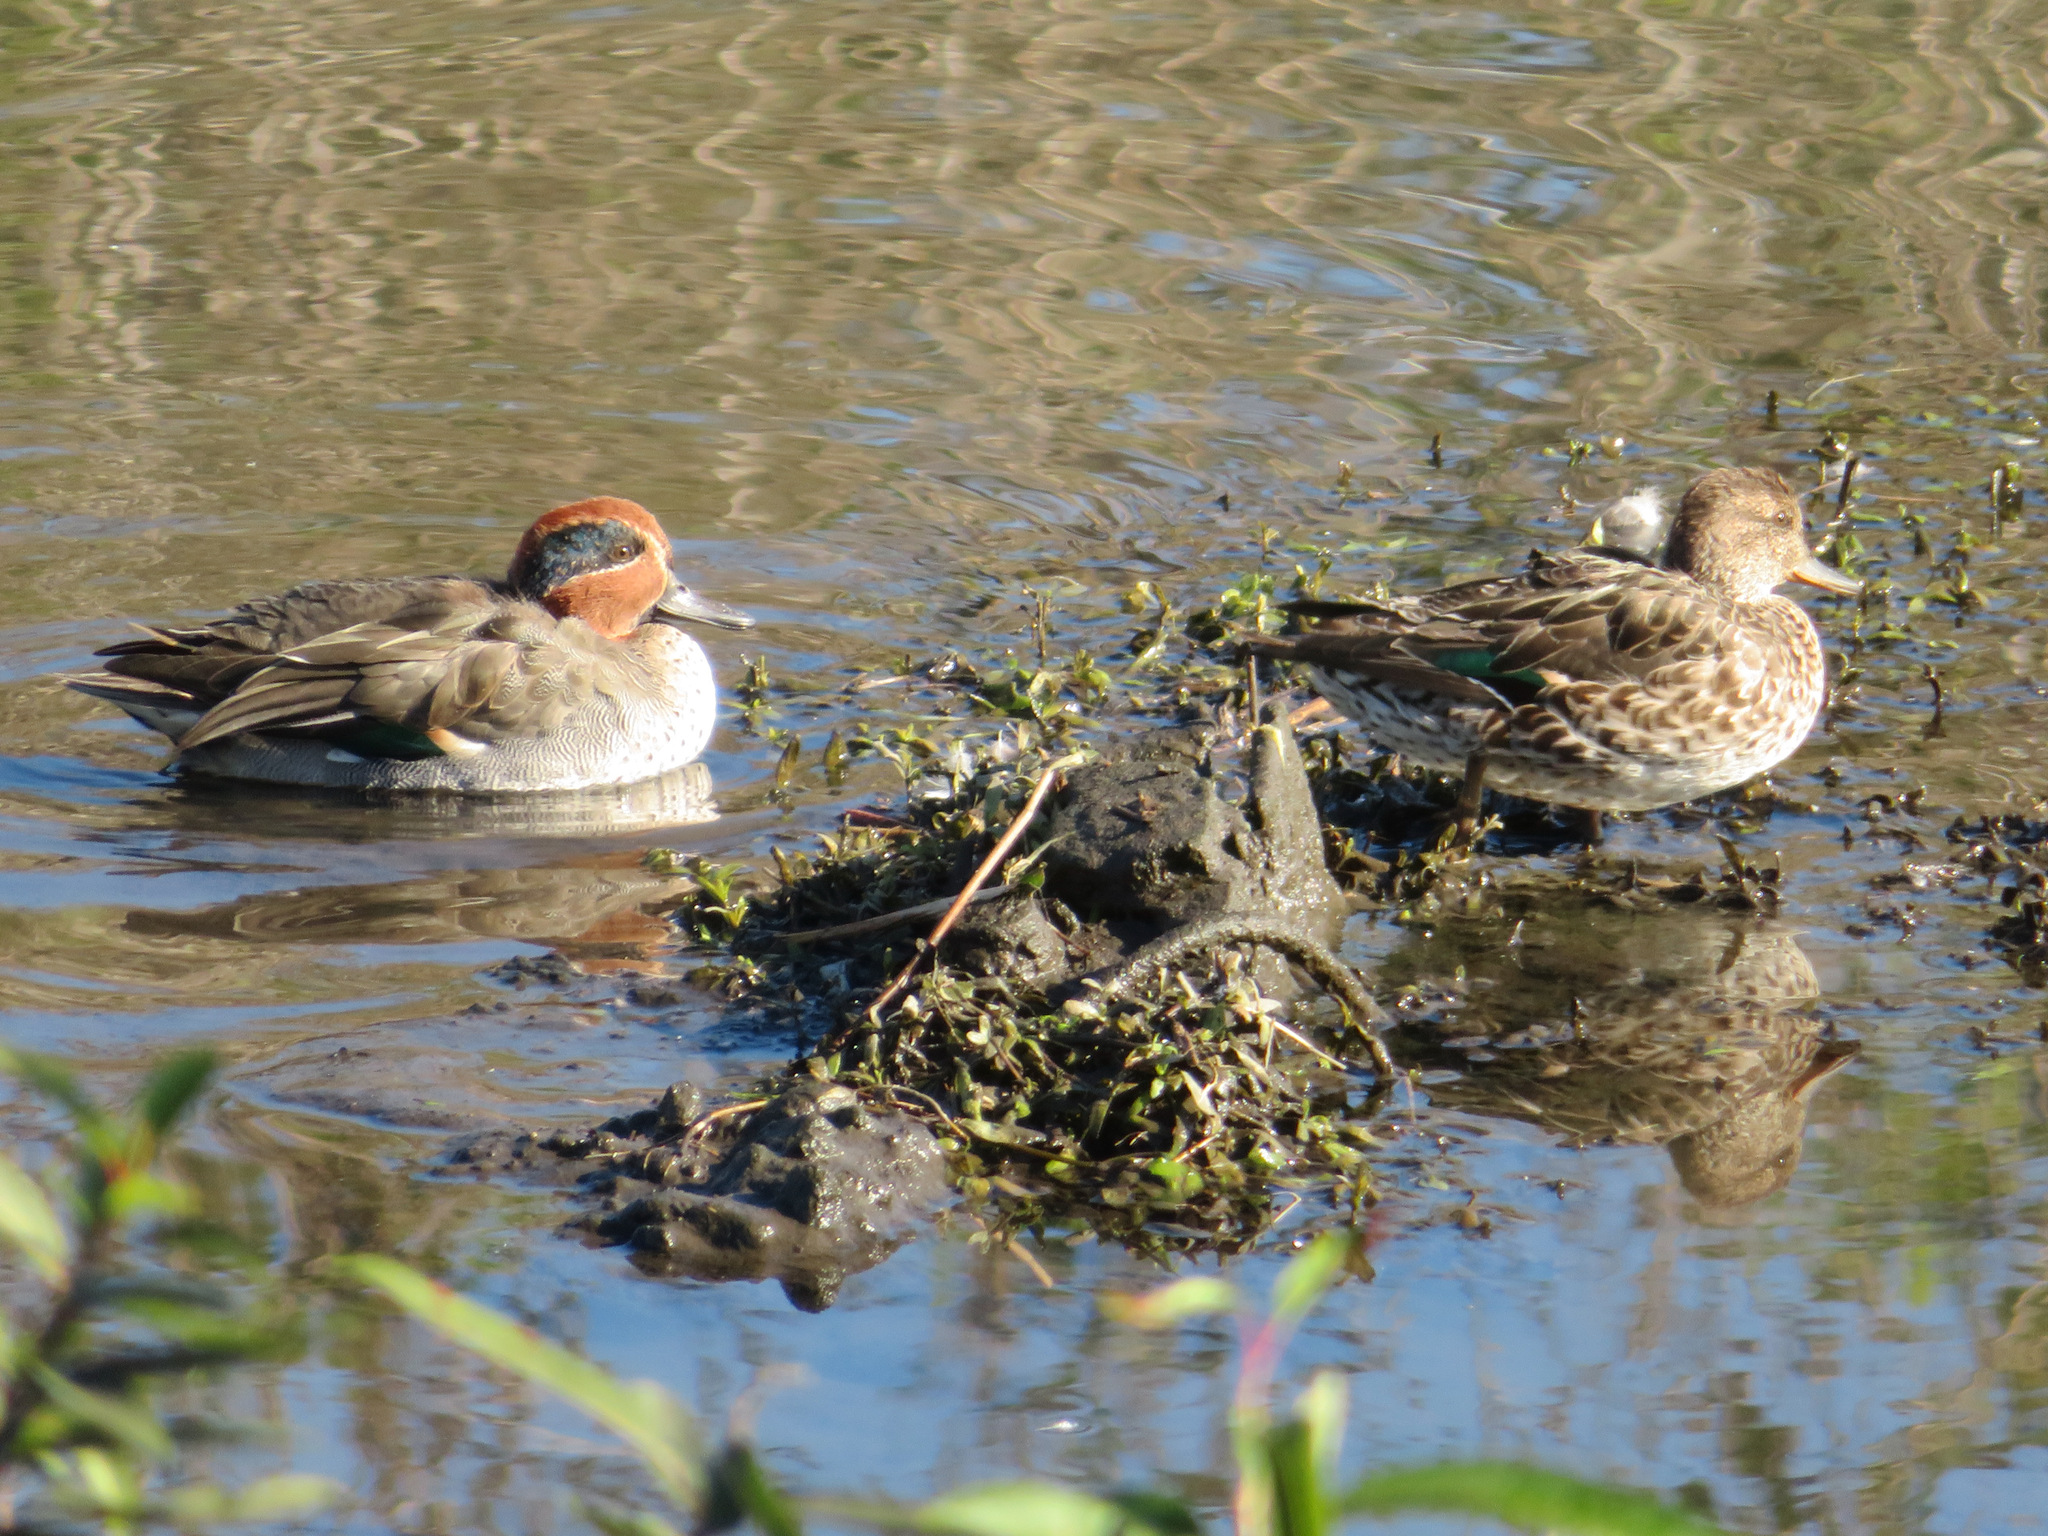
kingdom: Animalia
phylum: Chordata
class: Aves
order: Anseriformes
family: Anatidae
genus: Anas
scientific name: Anas crecca
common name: Eurasian teal
